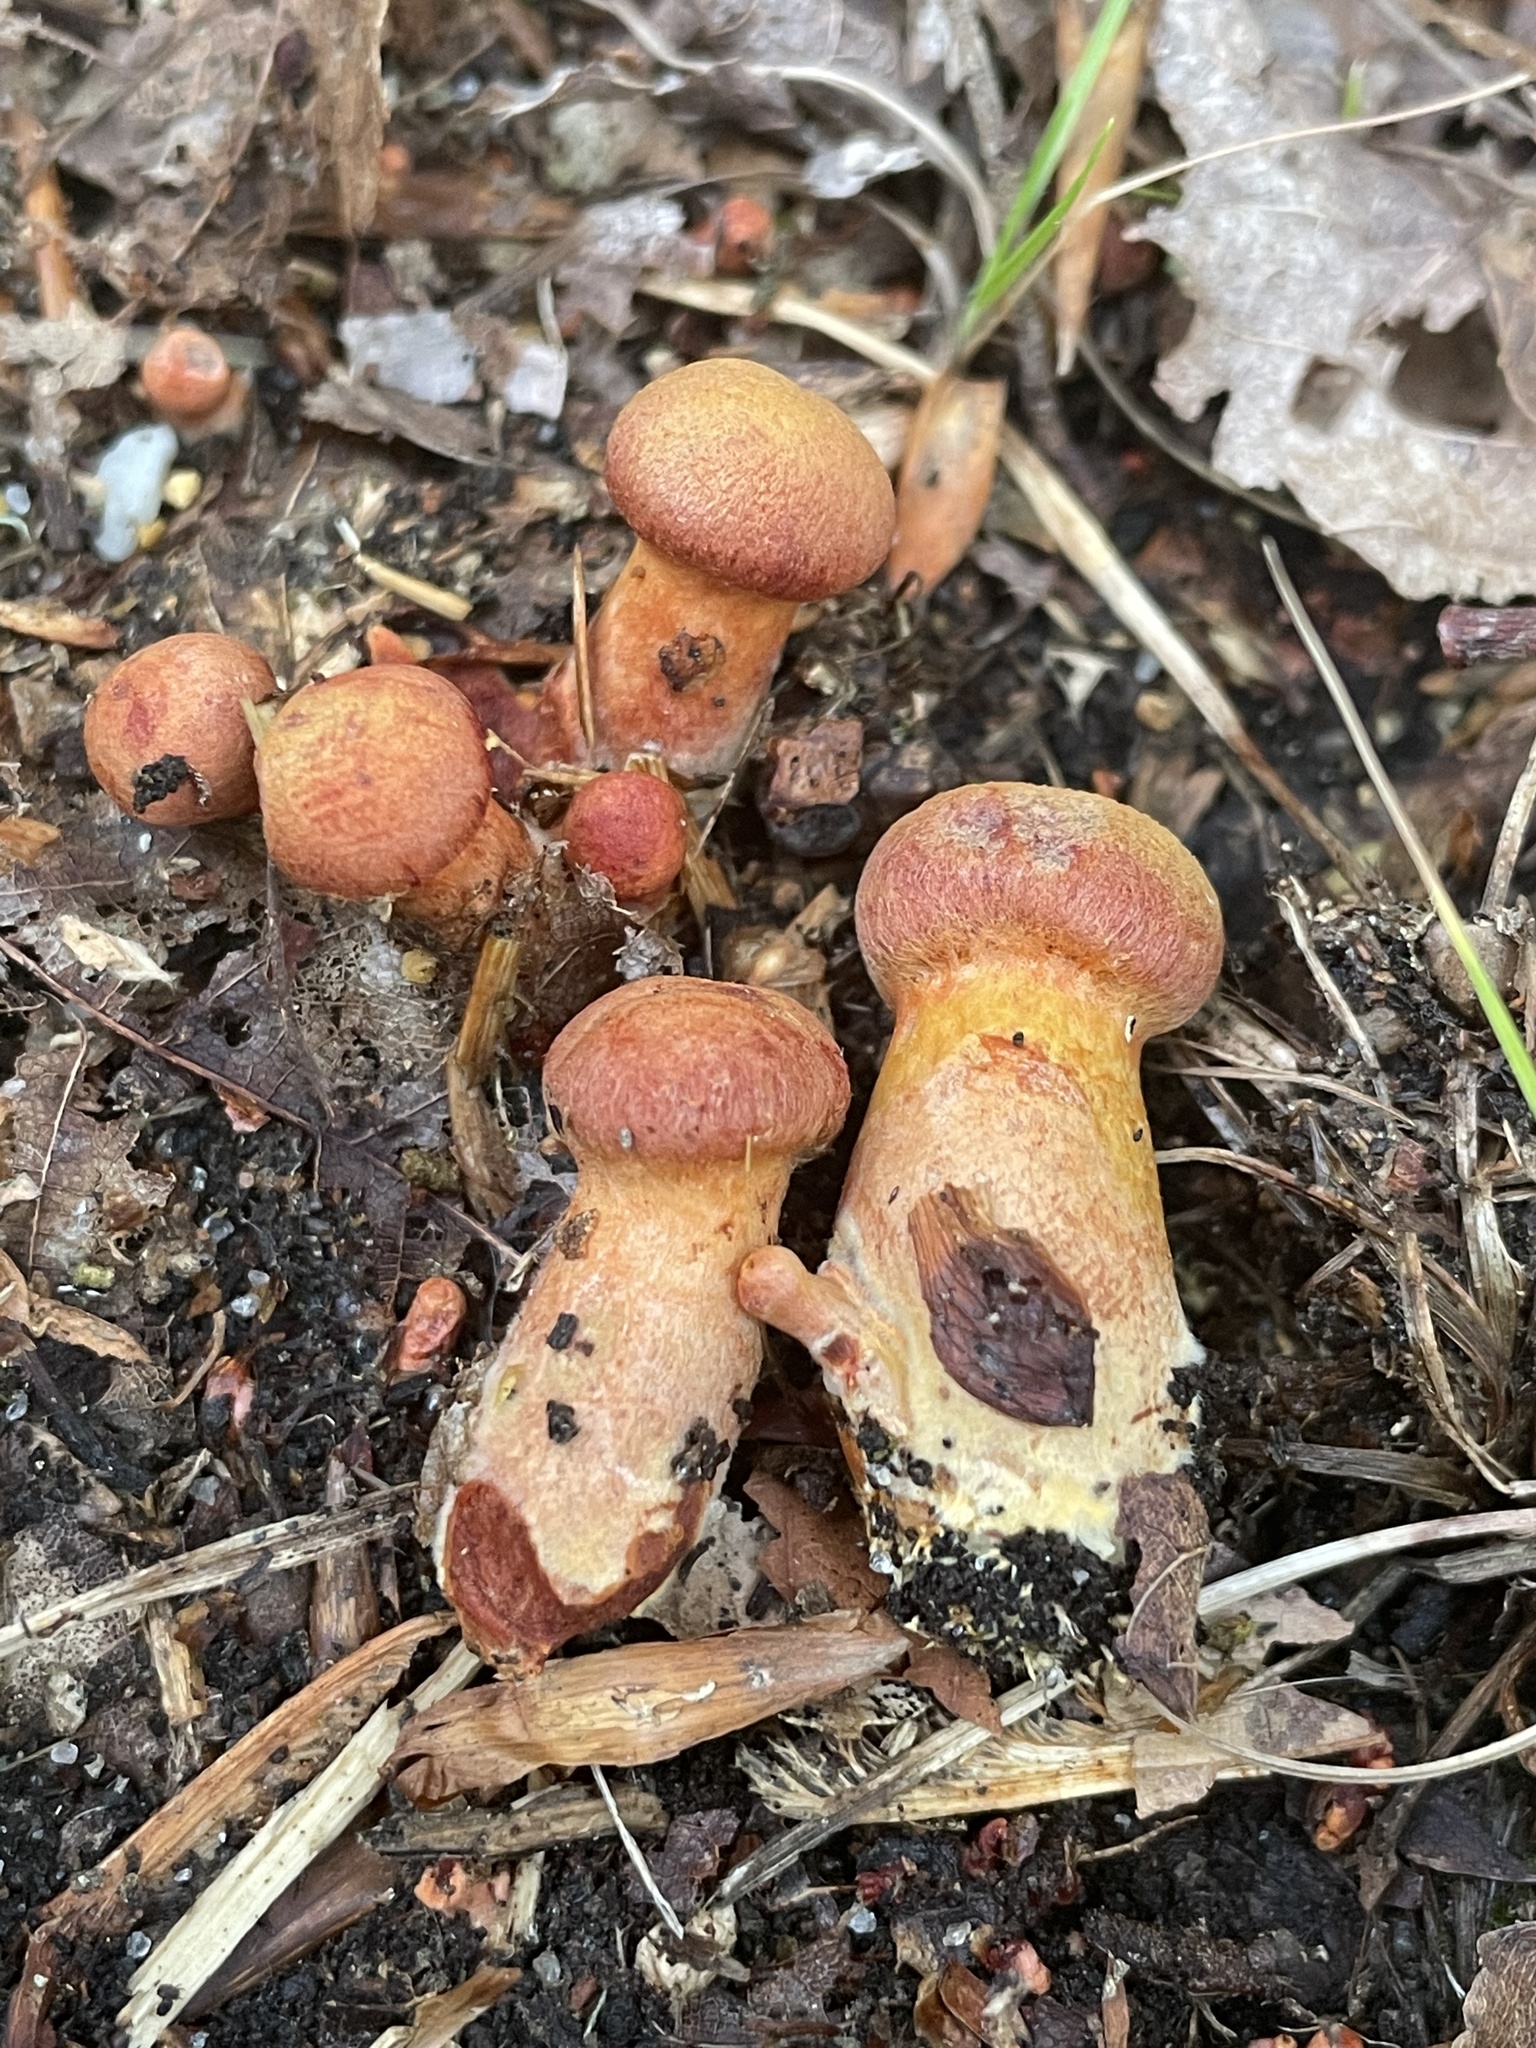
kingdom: Fungi
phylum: Basidiomycota
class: Agaricomycetes
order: Agaricales
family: Cortinariaceae
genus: Cortinarius
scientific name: Cortinarius harrisonii
